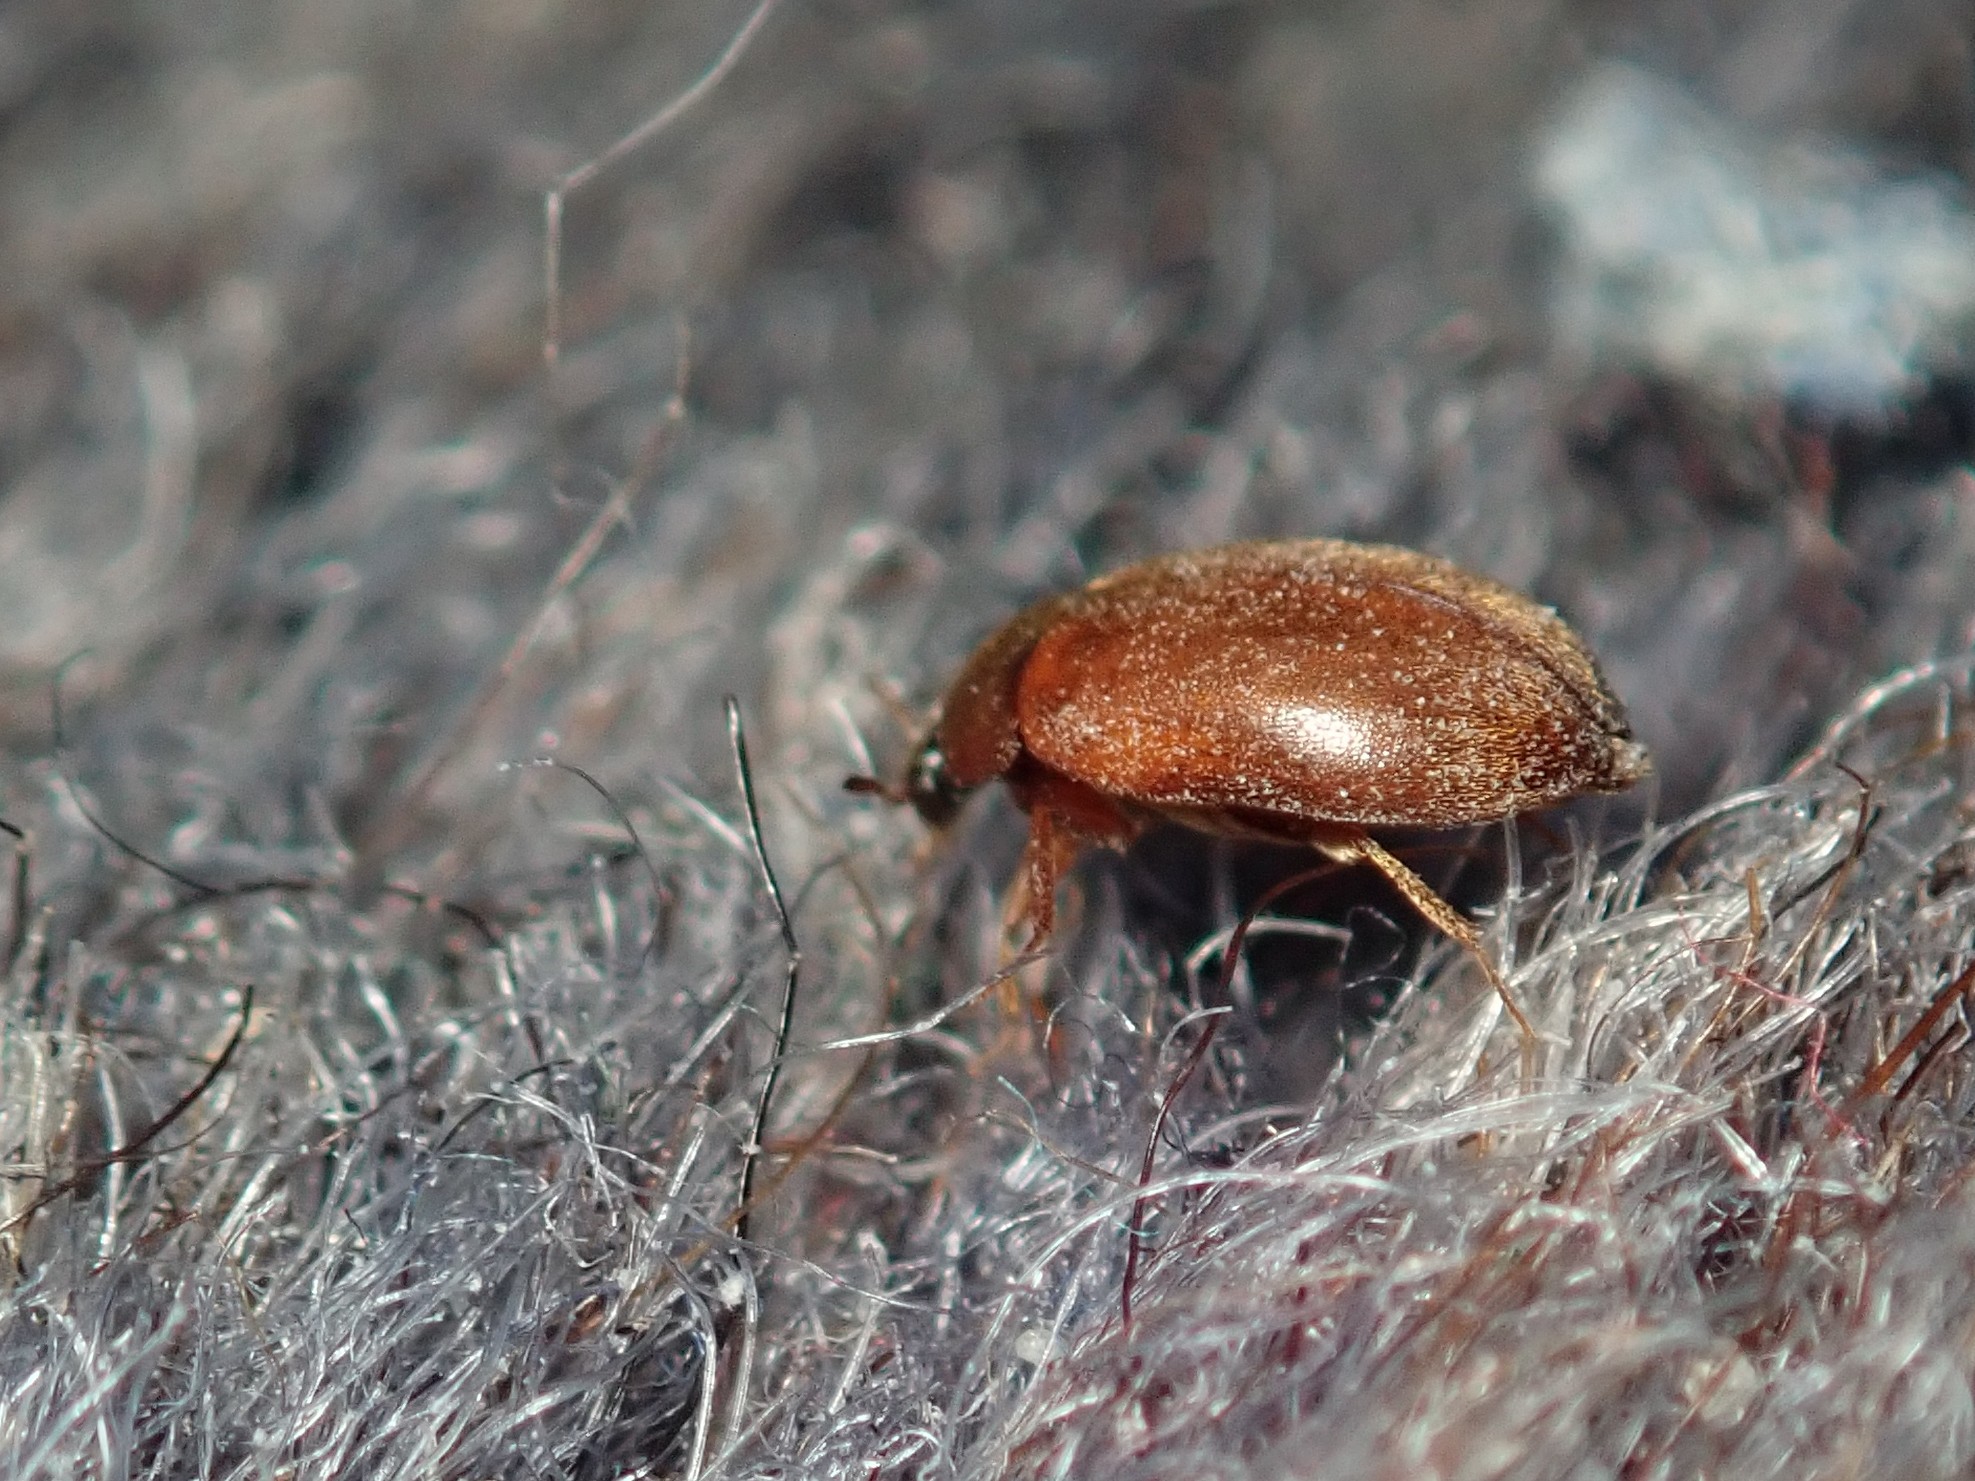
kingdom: Animalia
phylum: Arthropoda
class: Insecta
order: Coleoptera
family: Dermestidae
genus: Attagenus
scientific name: Attagenus smirnovi
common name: Brown carpet beetle
